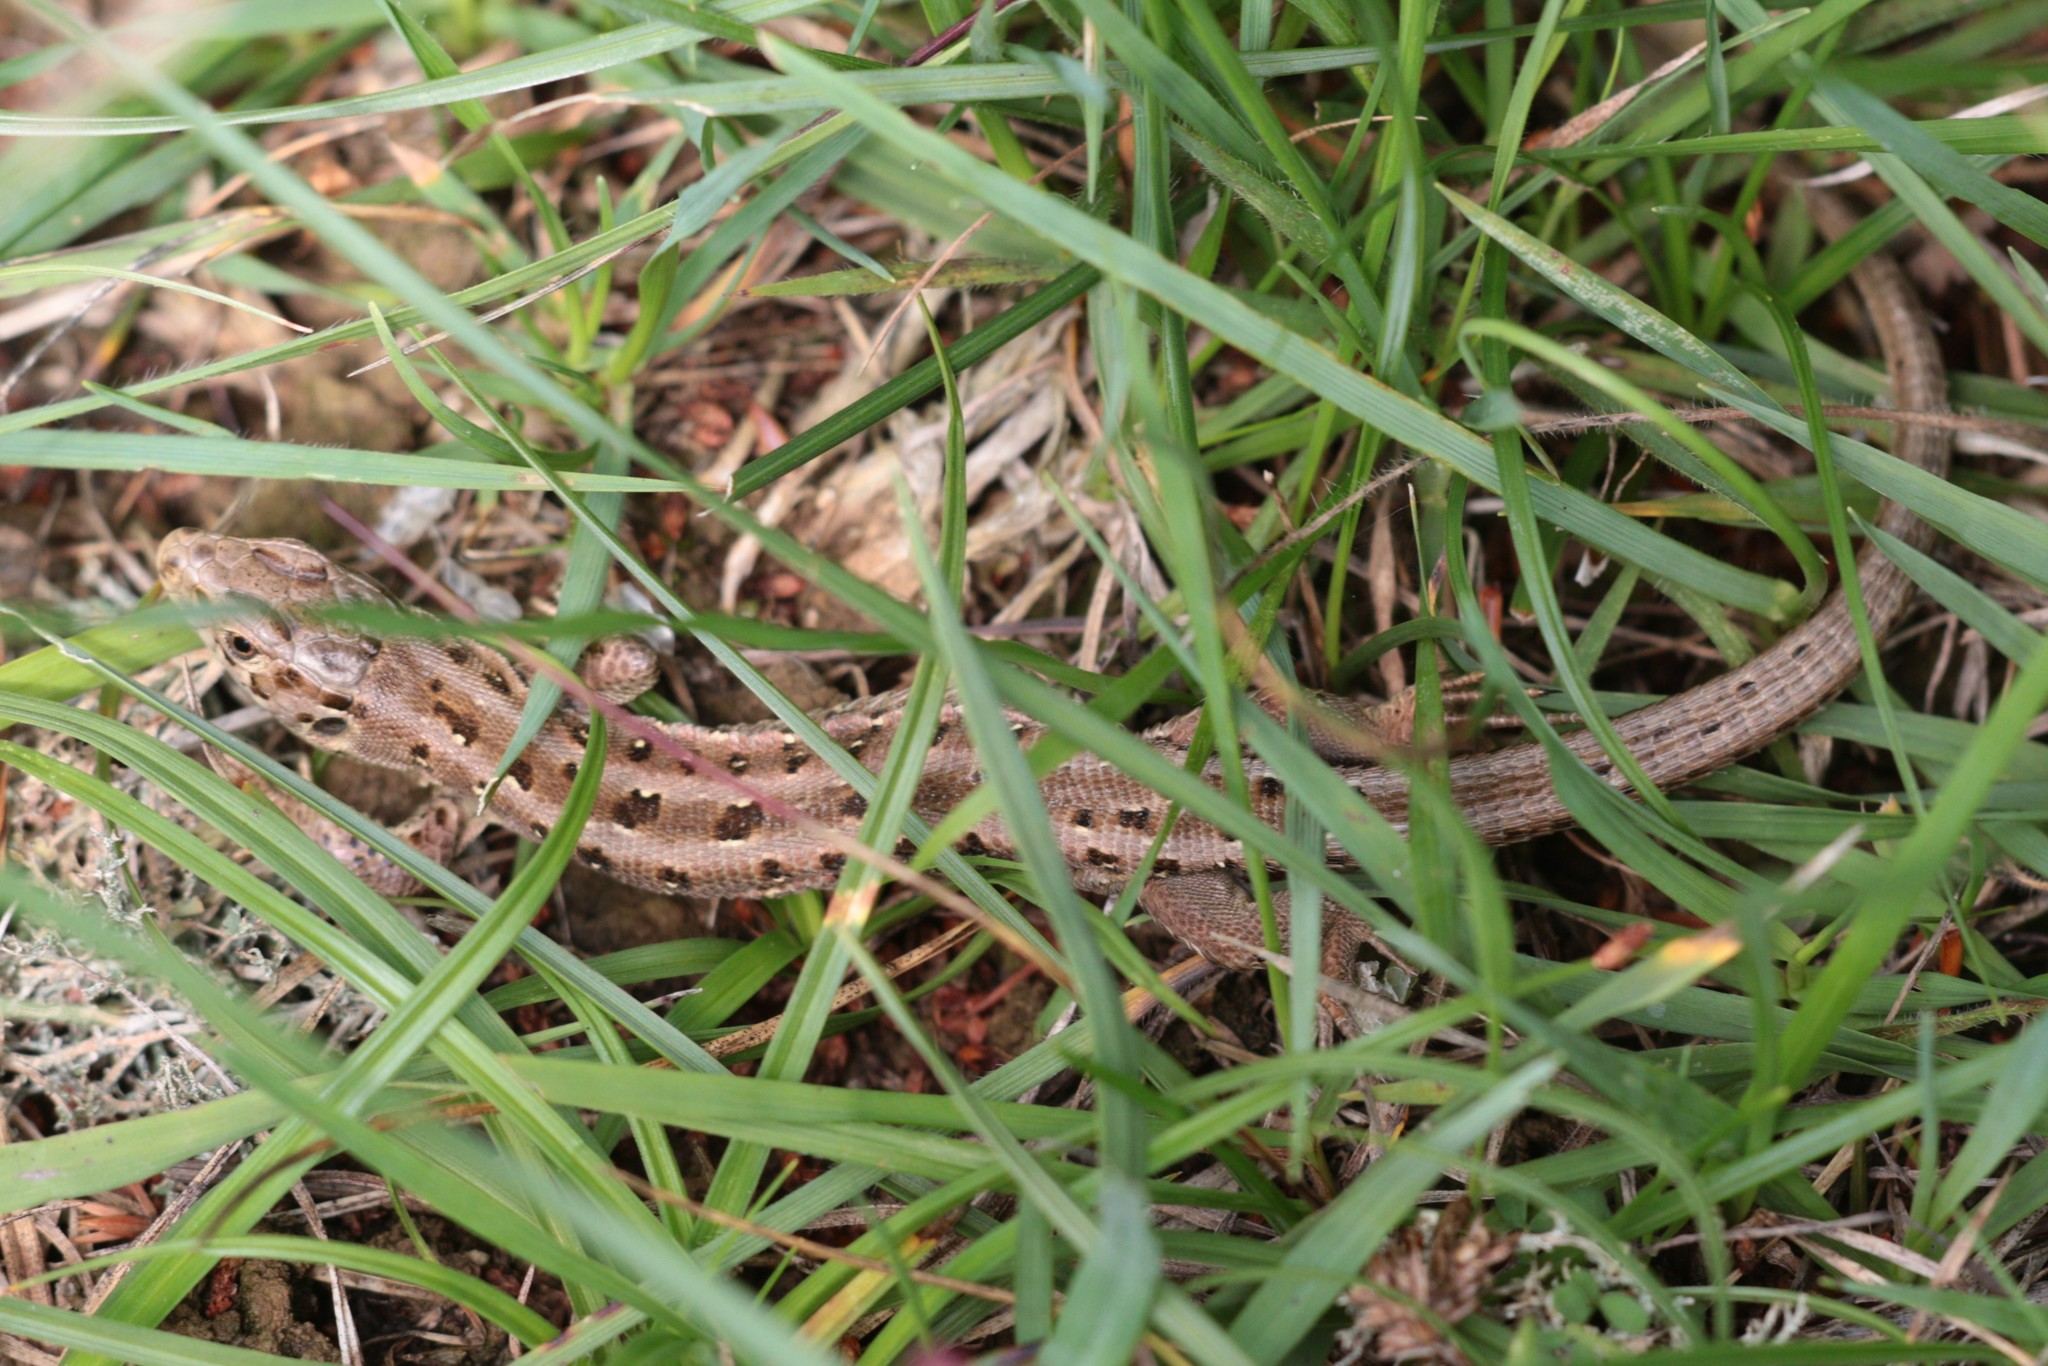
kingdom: Animalia
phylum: Chordata
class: Squamata
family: Lacertidae
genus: Lacerta
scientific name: Lacerta agilis
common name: Sand lizard
